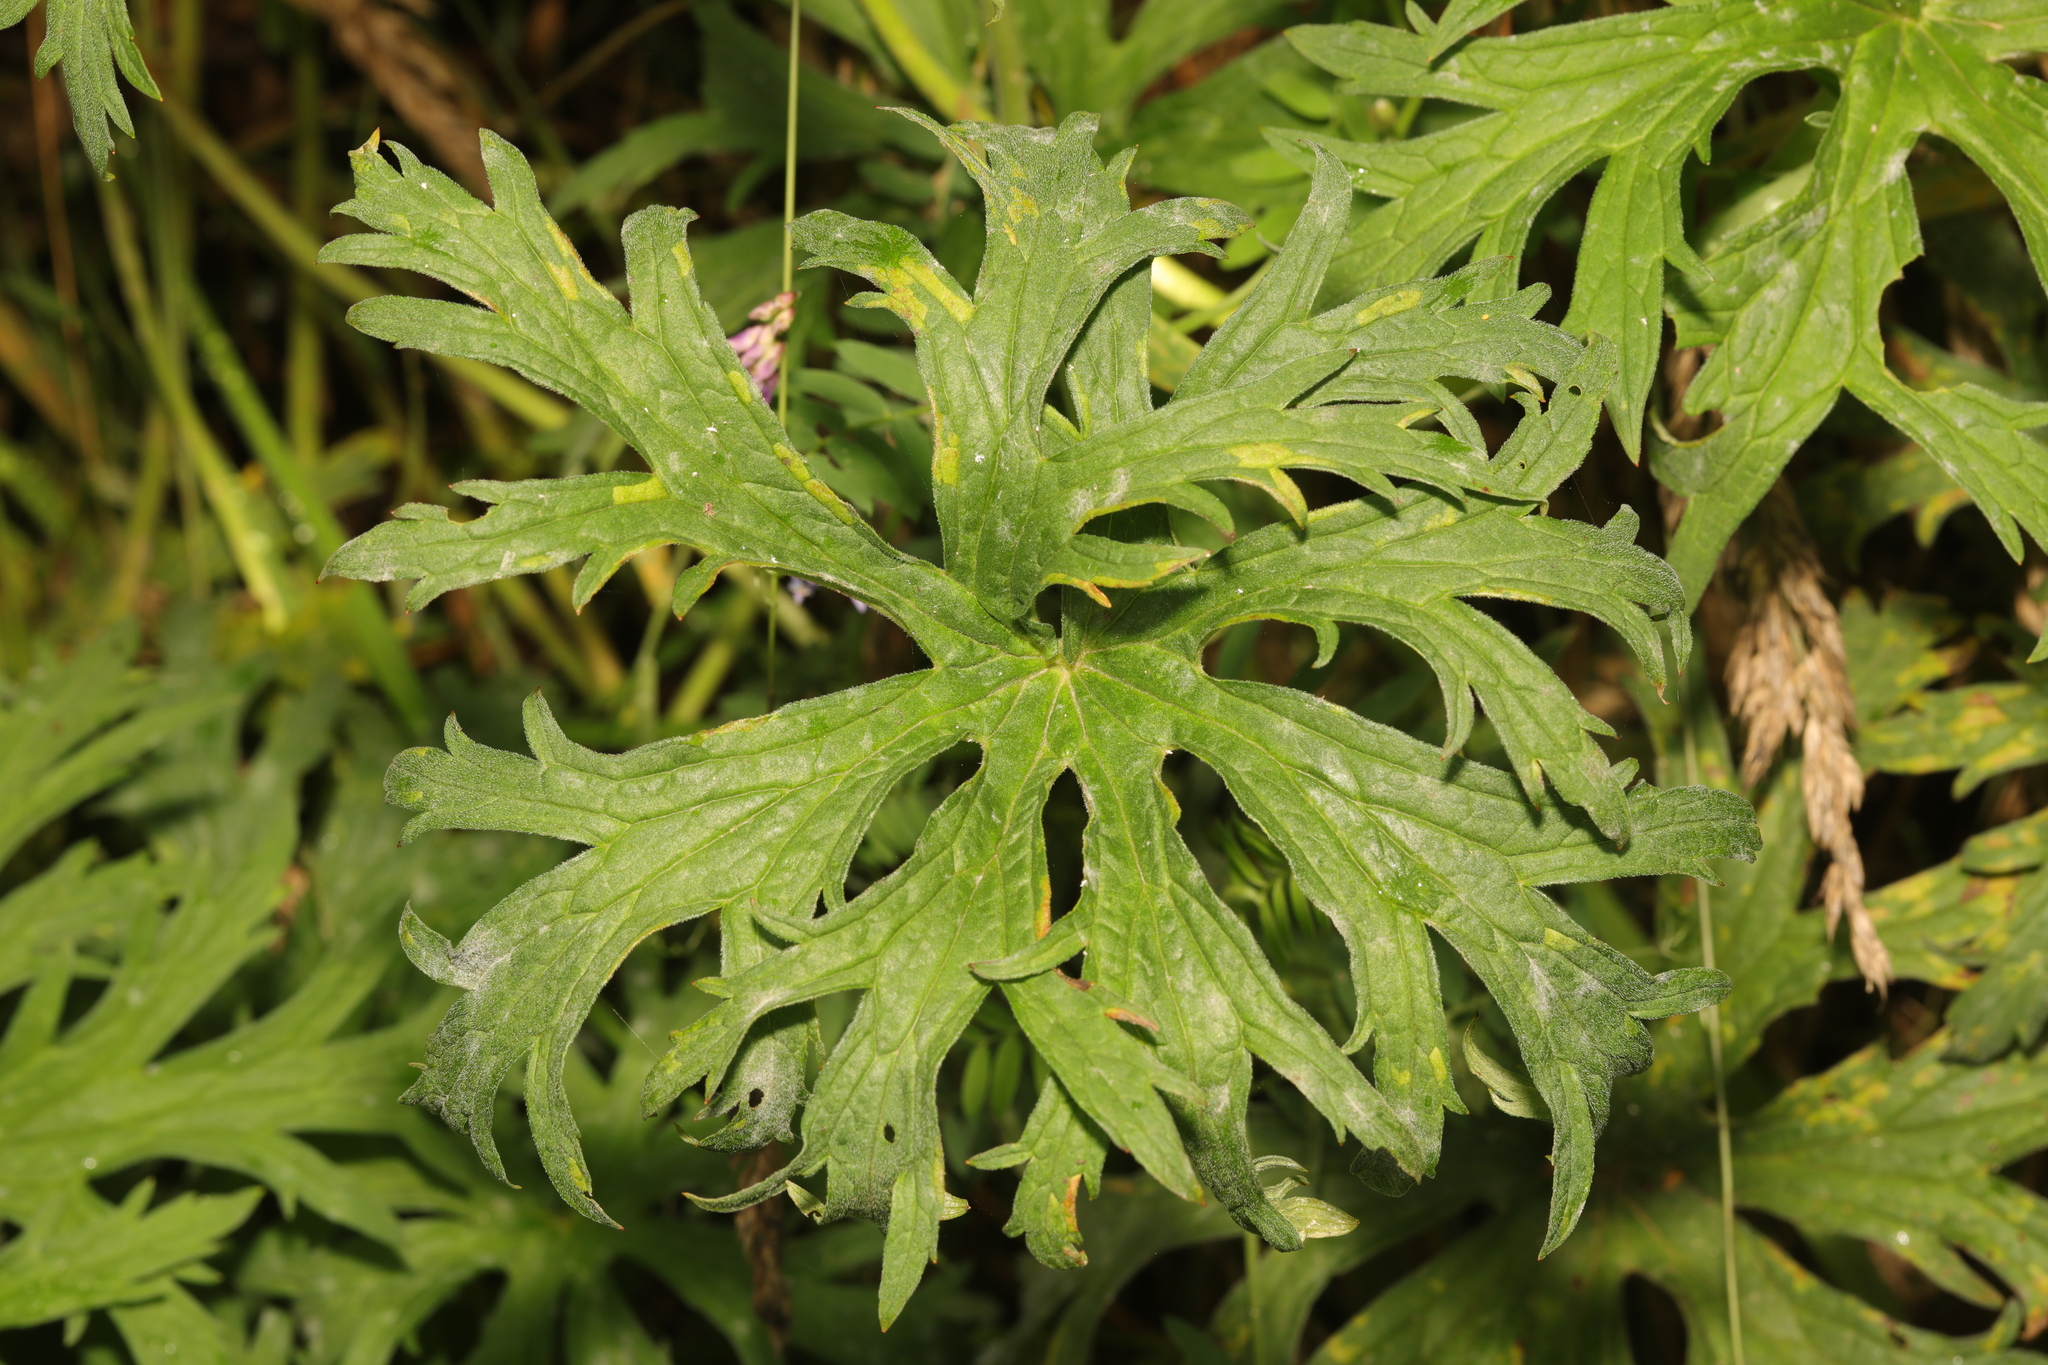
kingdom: Plantae
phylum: Tracheophyta
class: Magnoliopsida
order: Geraniales
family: Geraniaceae
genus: Geranium
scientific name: Geranium pratense
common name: Meadow crane's-bill
